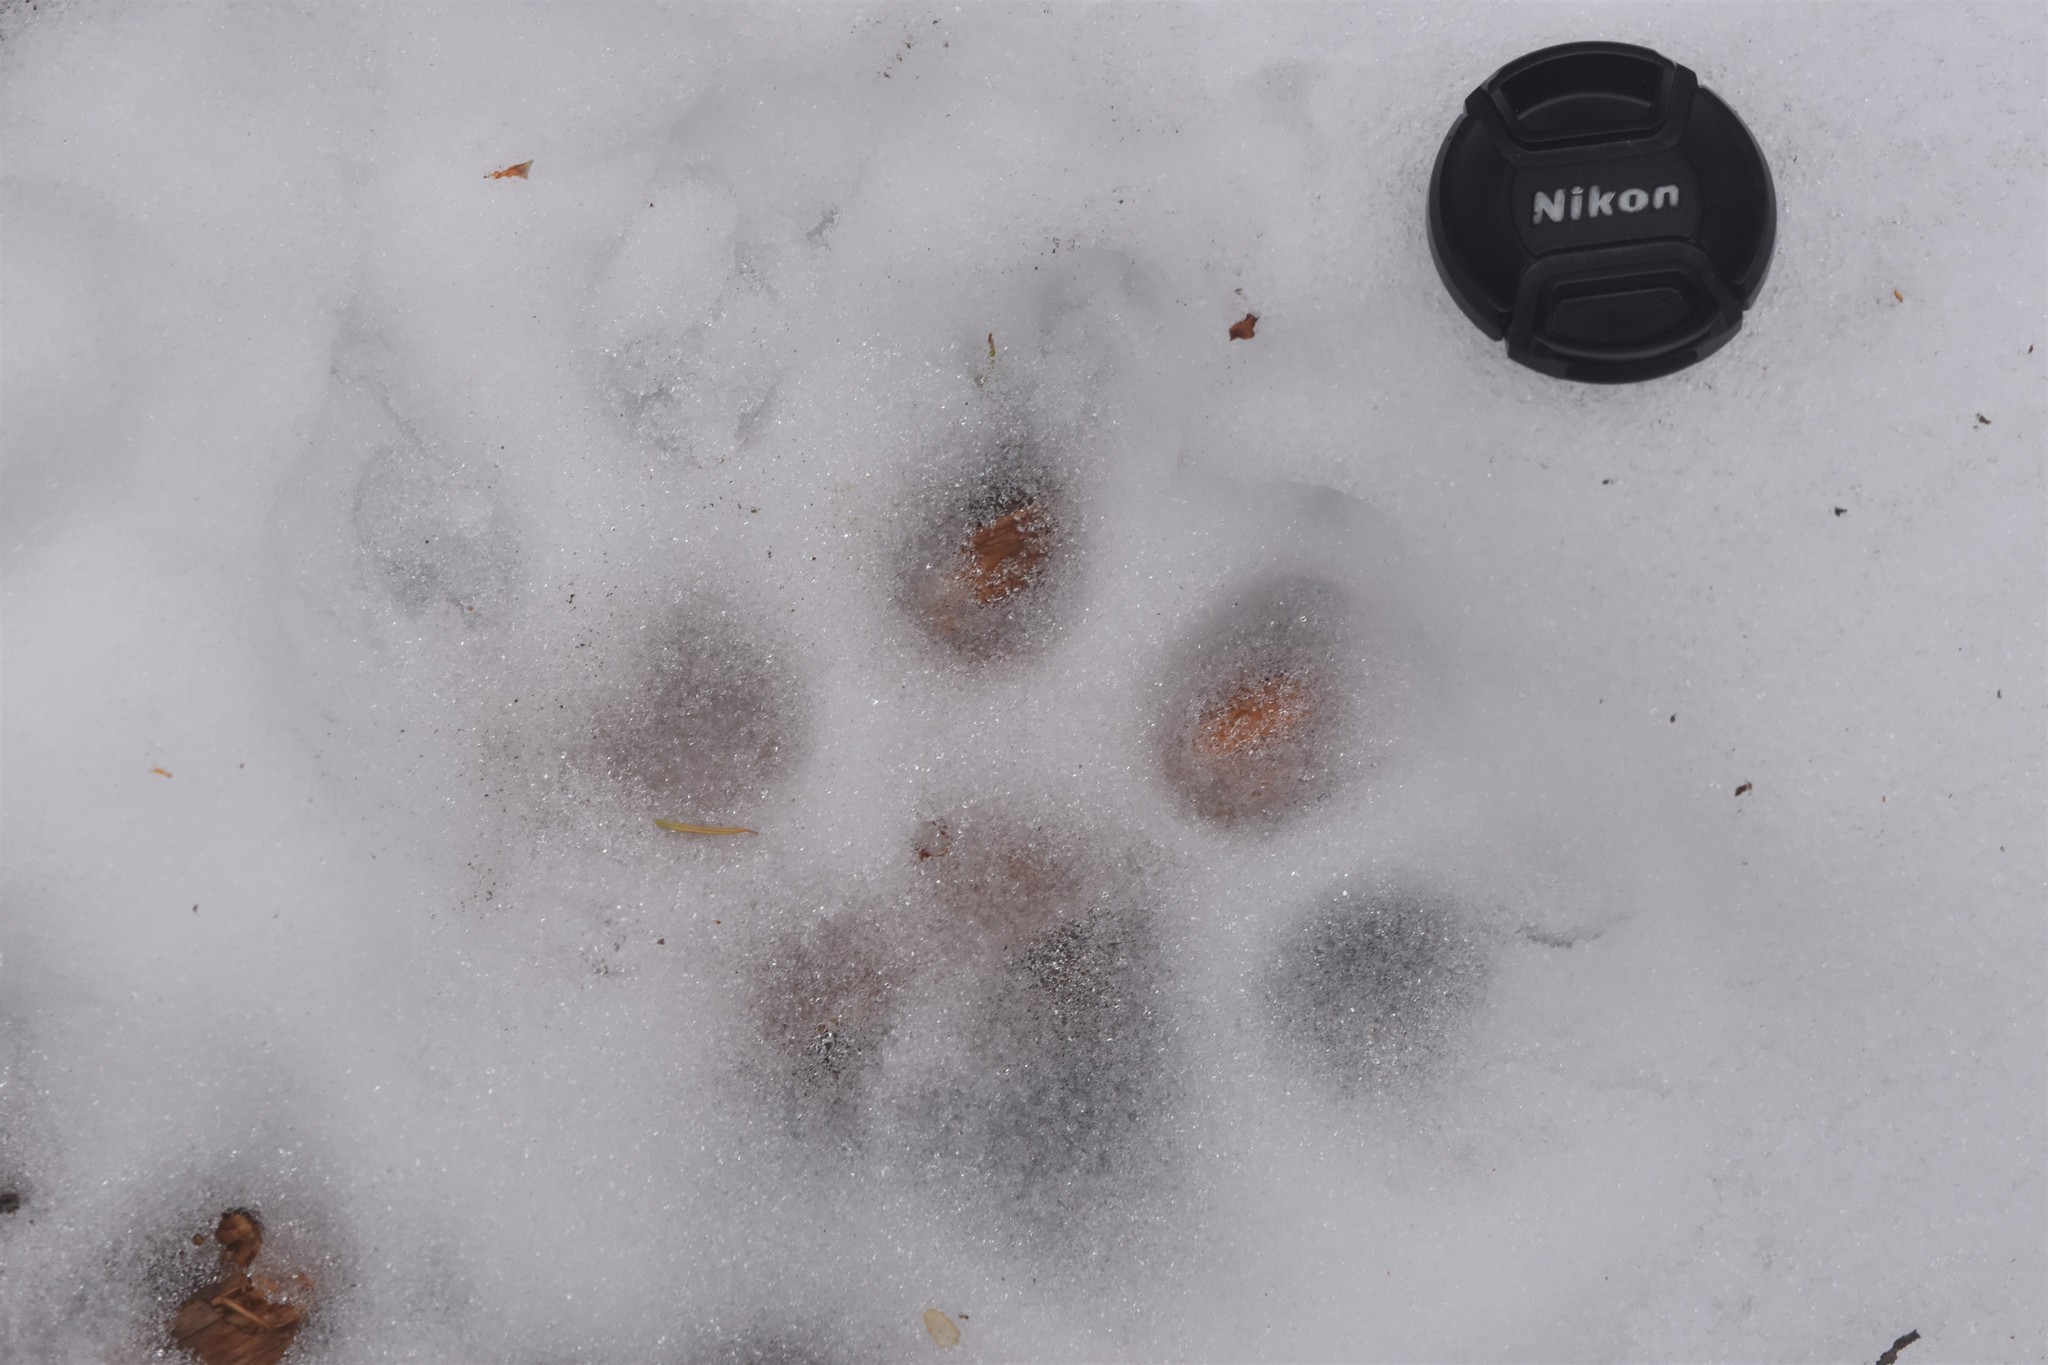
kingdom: Animalia
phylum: Chordata
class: Mammalia
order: Carnivora
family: Felidae
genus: Puma
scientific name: Puma concolor
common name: Puma
